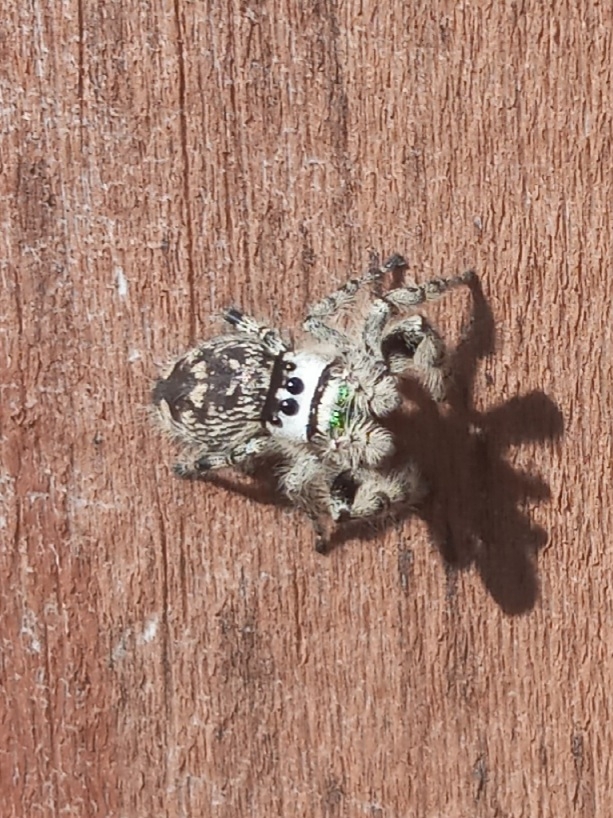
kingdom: Animalia
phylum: Arthropoda
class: Arachnida
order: Araneae
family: Salticidae
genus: Phidippus
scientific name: Phidippus otiosus
